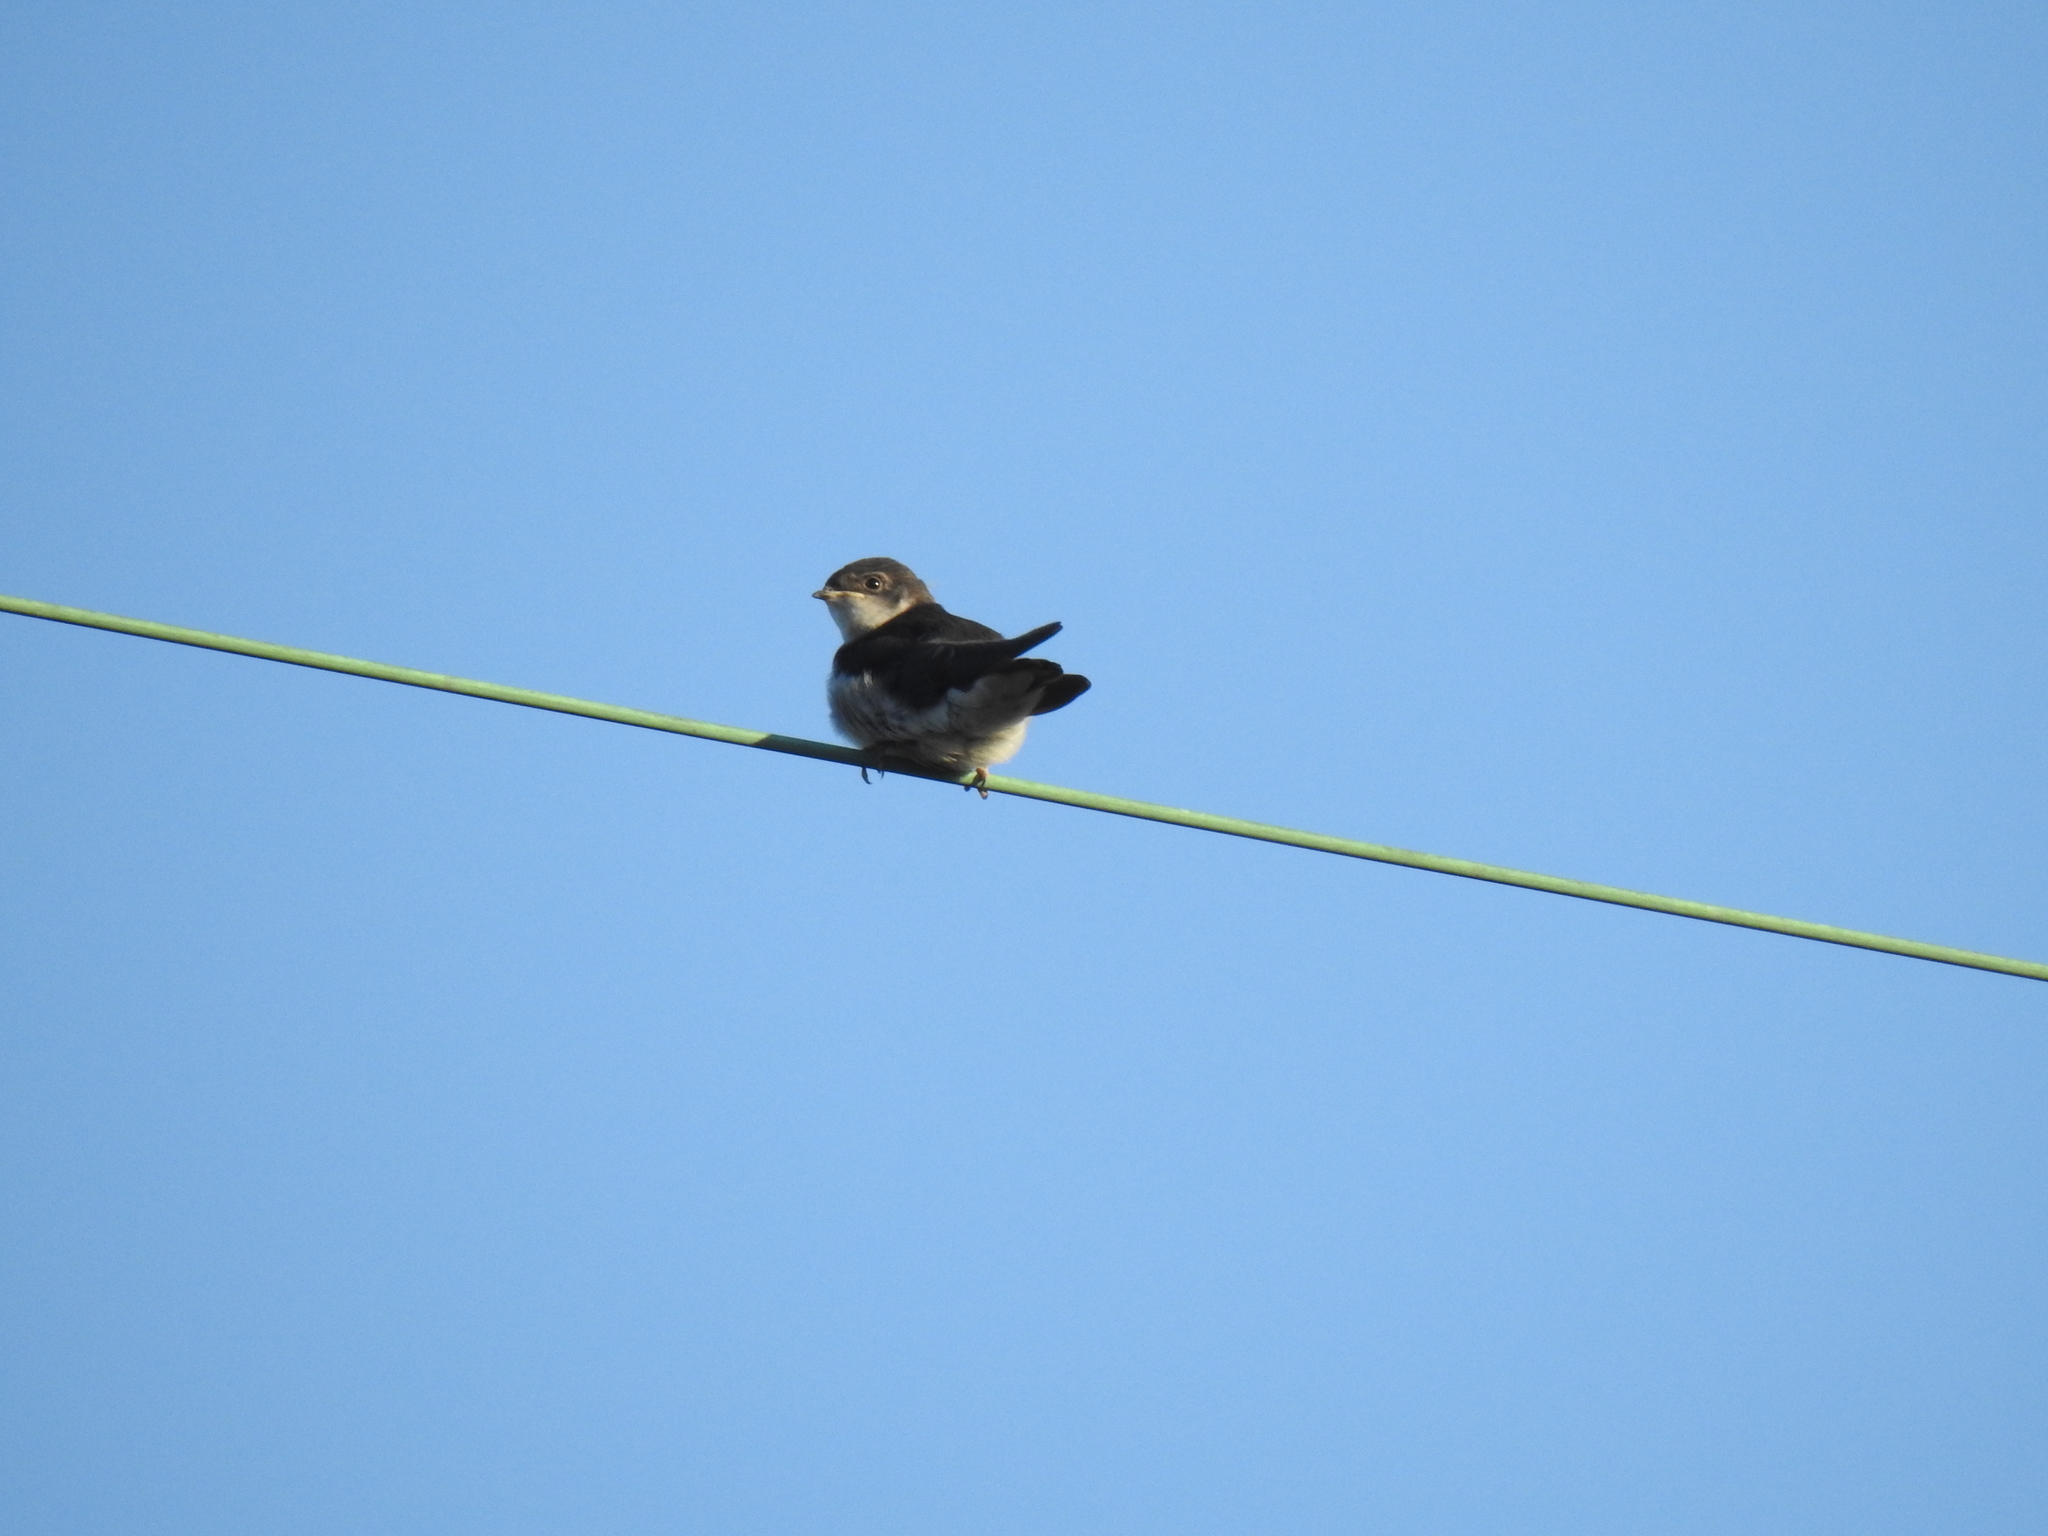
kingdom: Animalia
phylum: Chordata
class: Aves
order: Passeriformes
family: Hirundinidae
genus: Tachycineta
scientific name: Tachycineta bicolor
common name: Tree swallow
